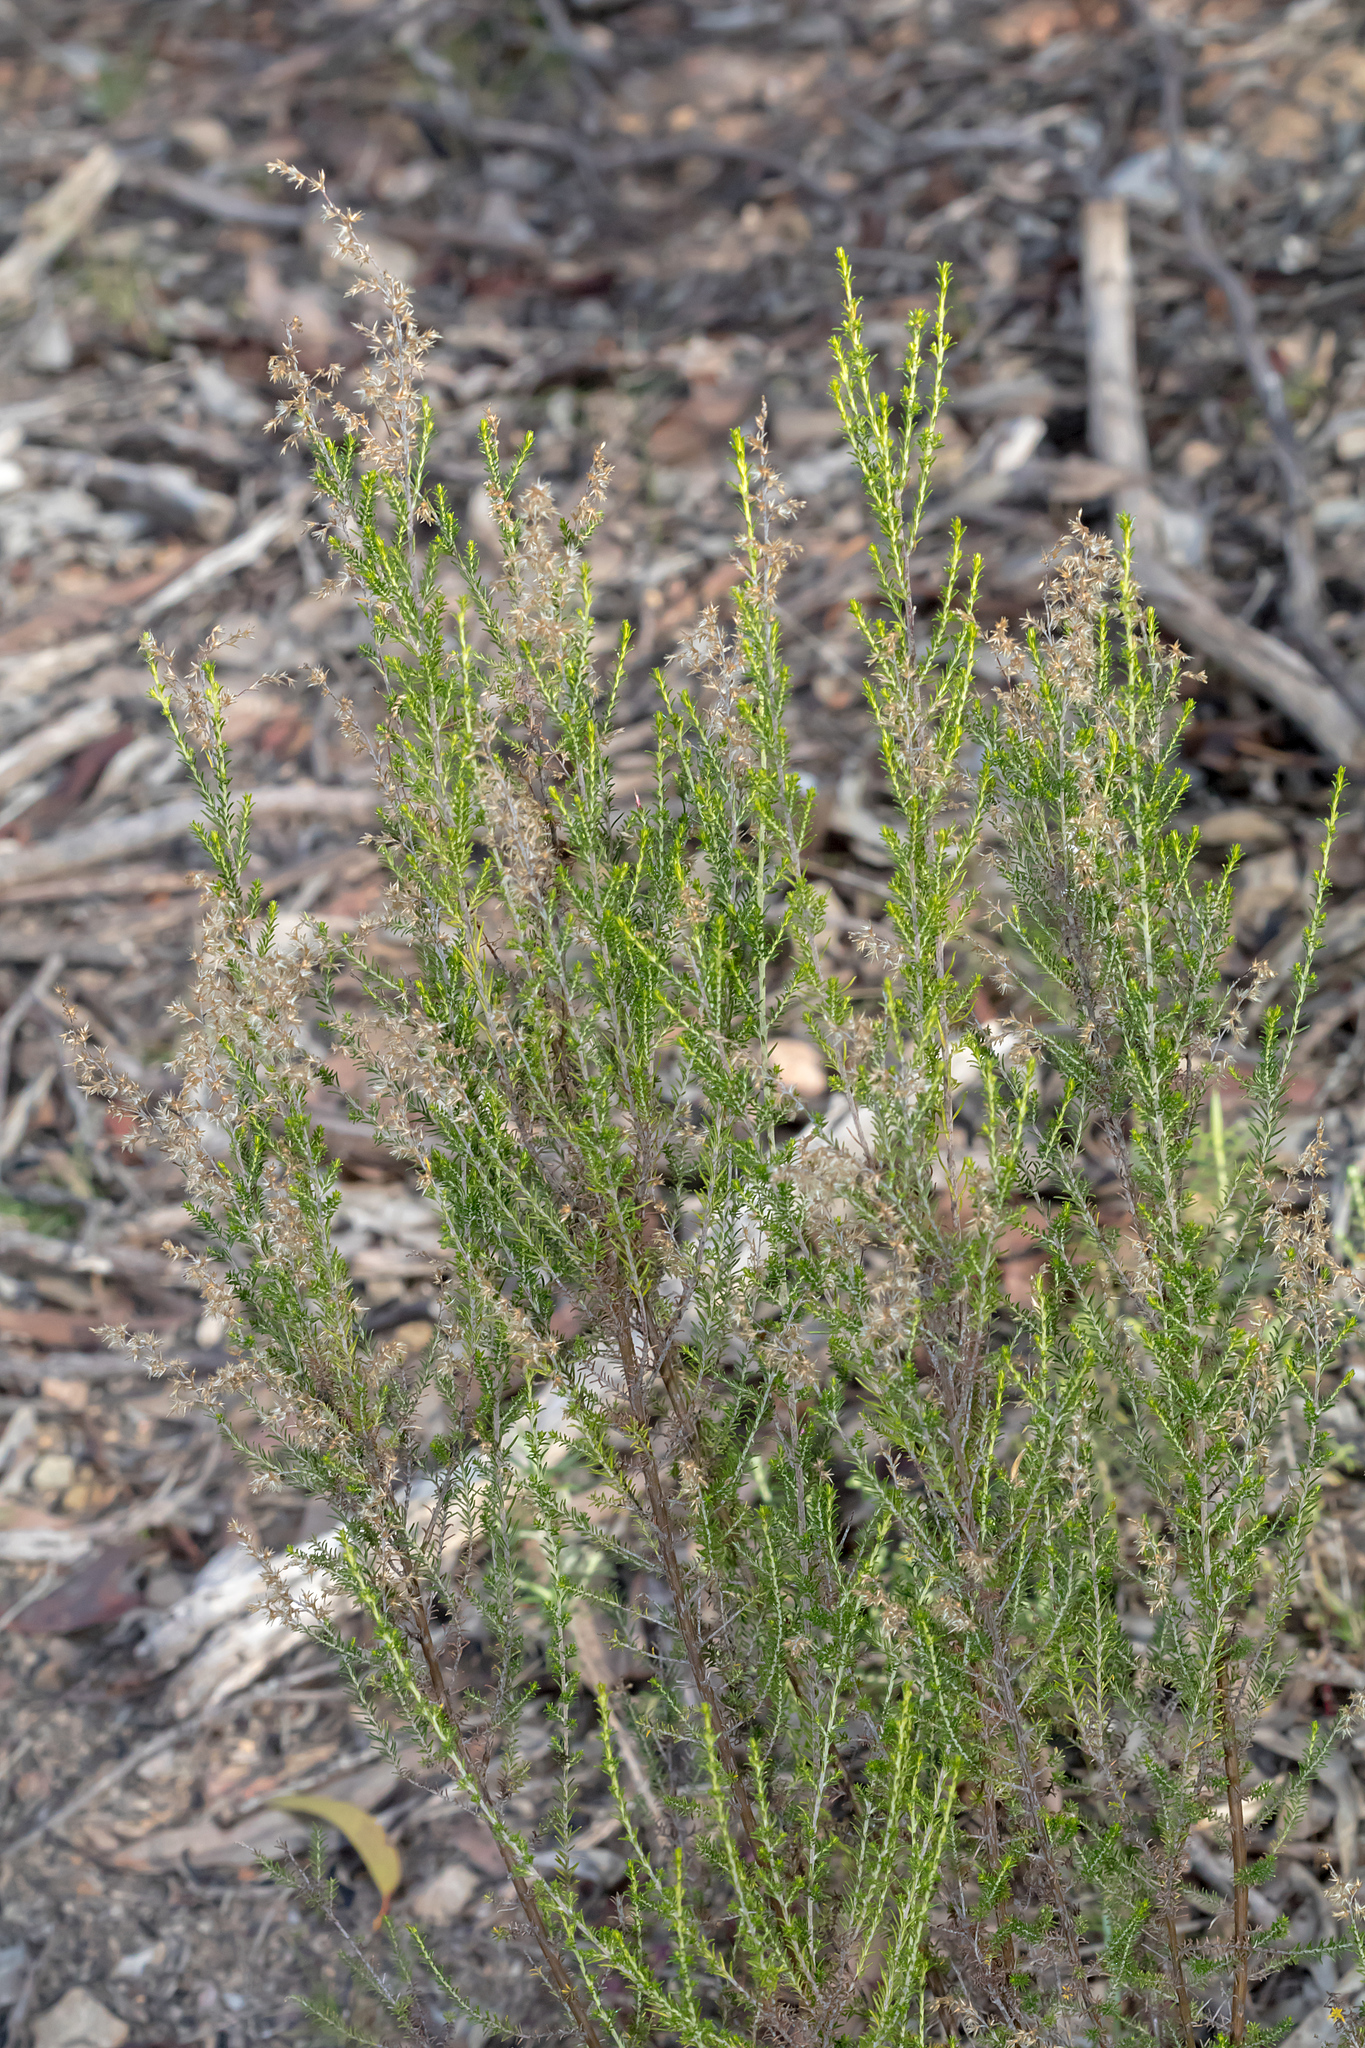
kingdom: Plantae
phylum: Tracheophyta
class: Magnoliopsida
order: Asterales
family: Asteraceae
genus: Cassinia
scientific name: Cassinia sifton
